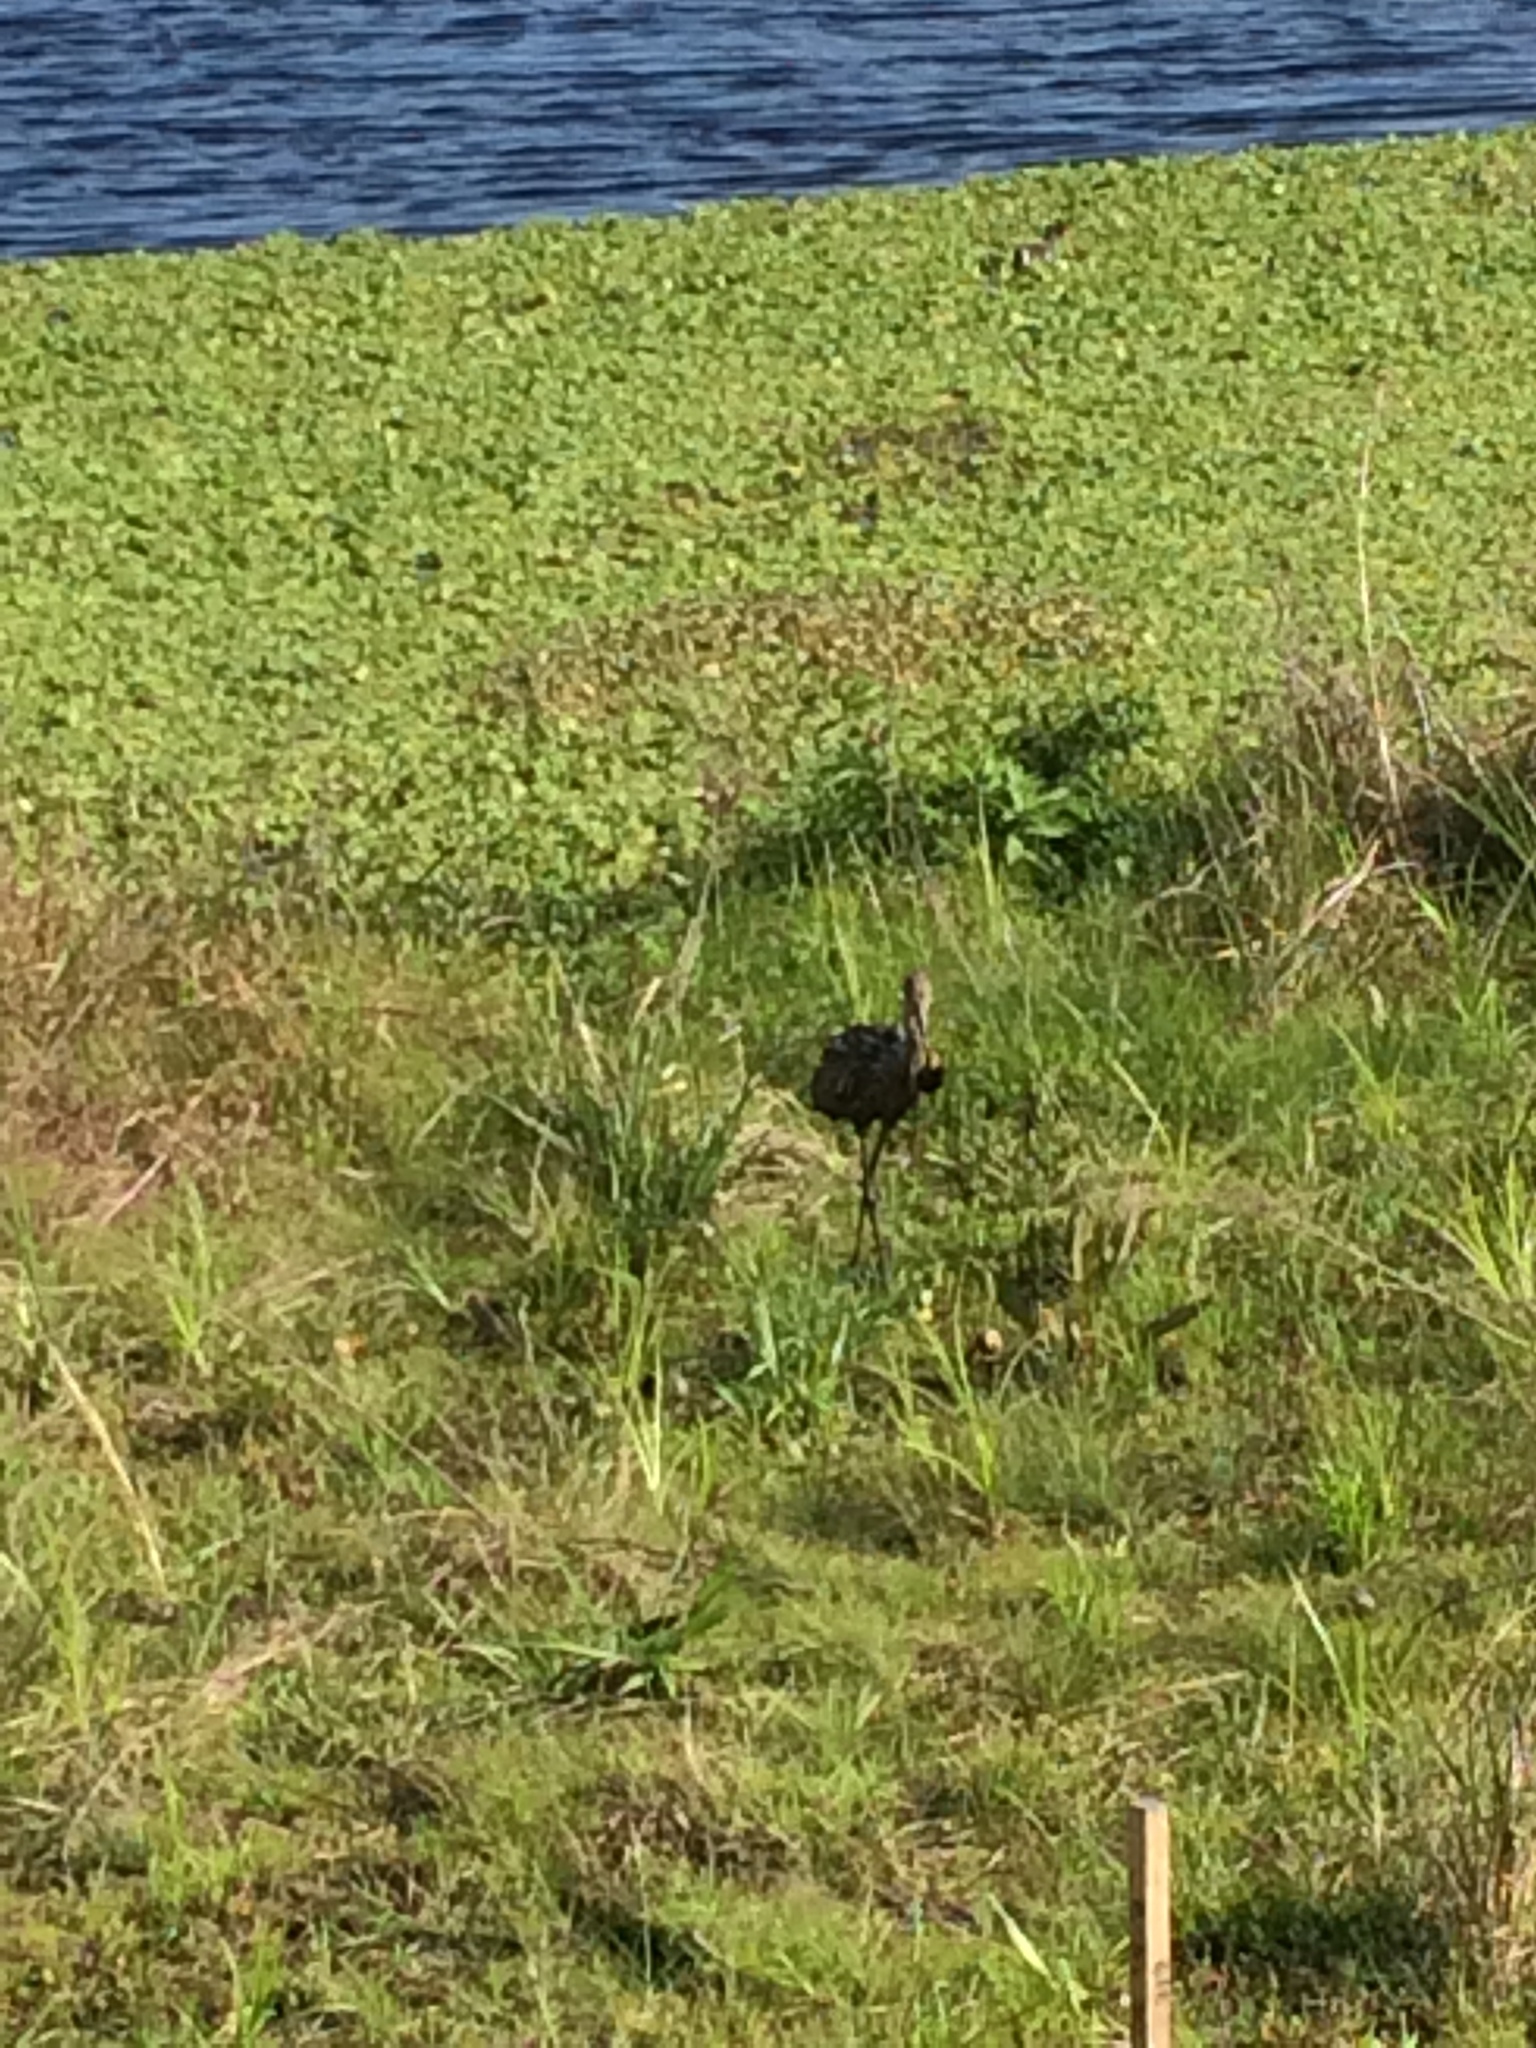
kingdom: Animalia
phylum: Chordata
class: Aves
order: Gruiformes
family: Aramidae
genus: Aramus
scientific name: Aramus guarauna
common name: Limpkin
